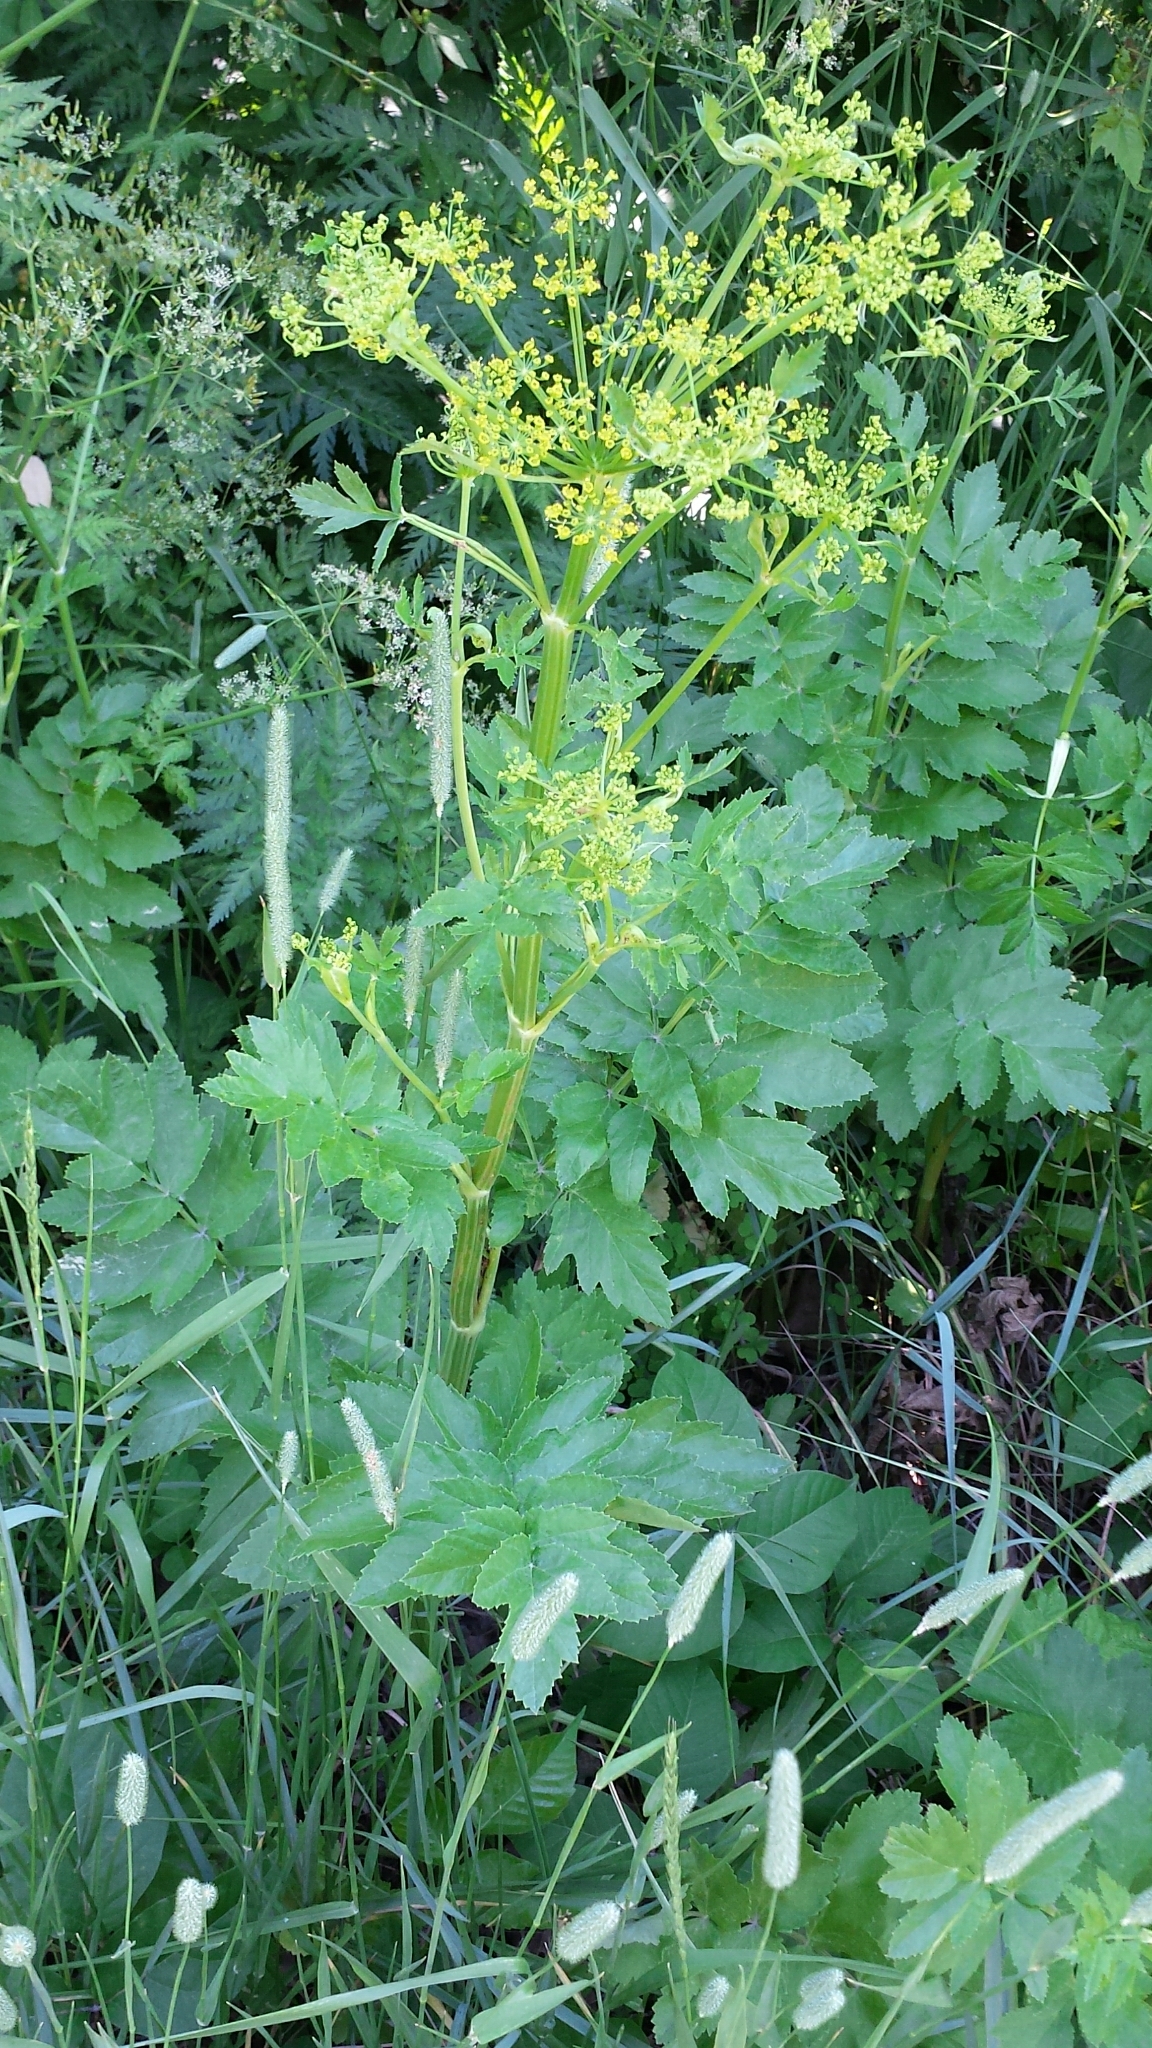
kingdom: Plantae
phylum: Tracheophyta
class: Magnoliopsida
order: Apiales
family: Apiaceae
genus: Pastinaca
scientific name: Pastinaca sativa
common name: Wild parsnip
